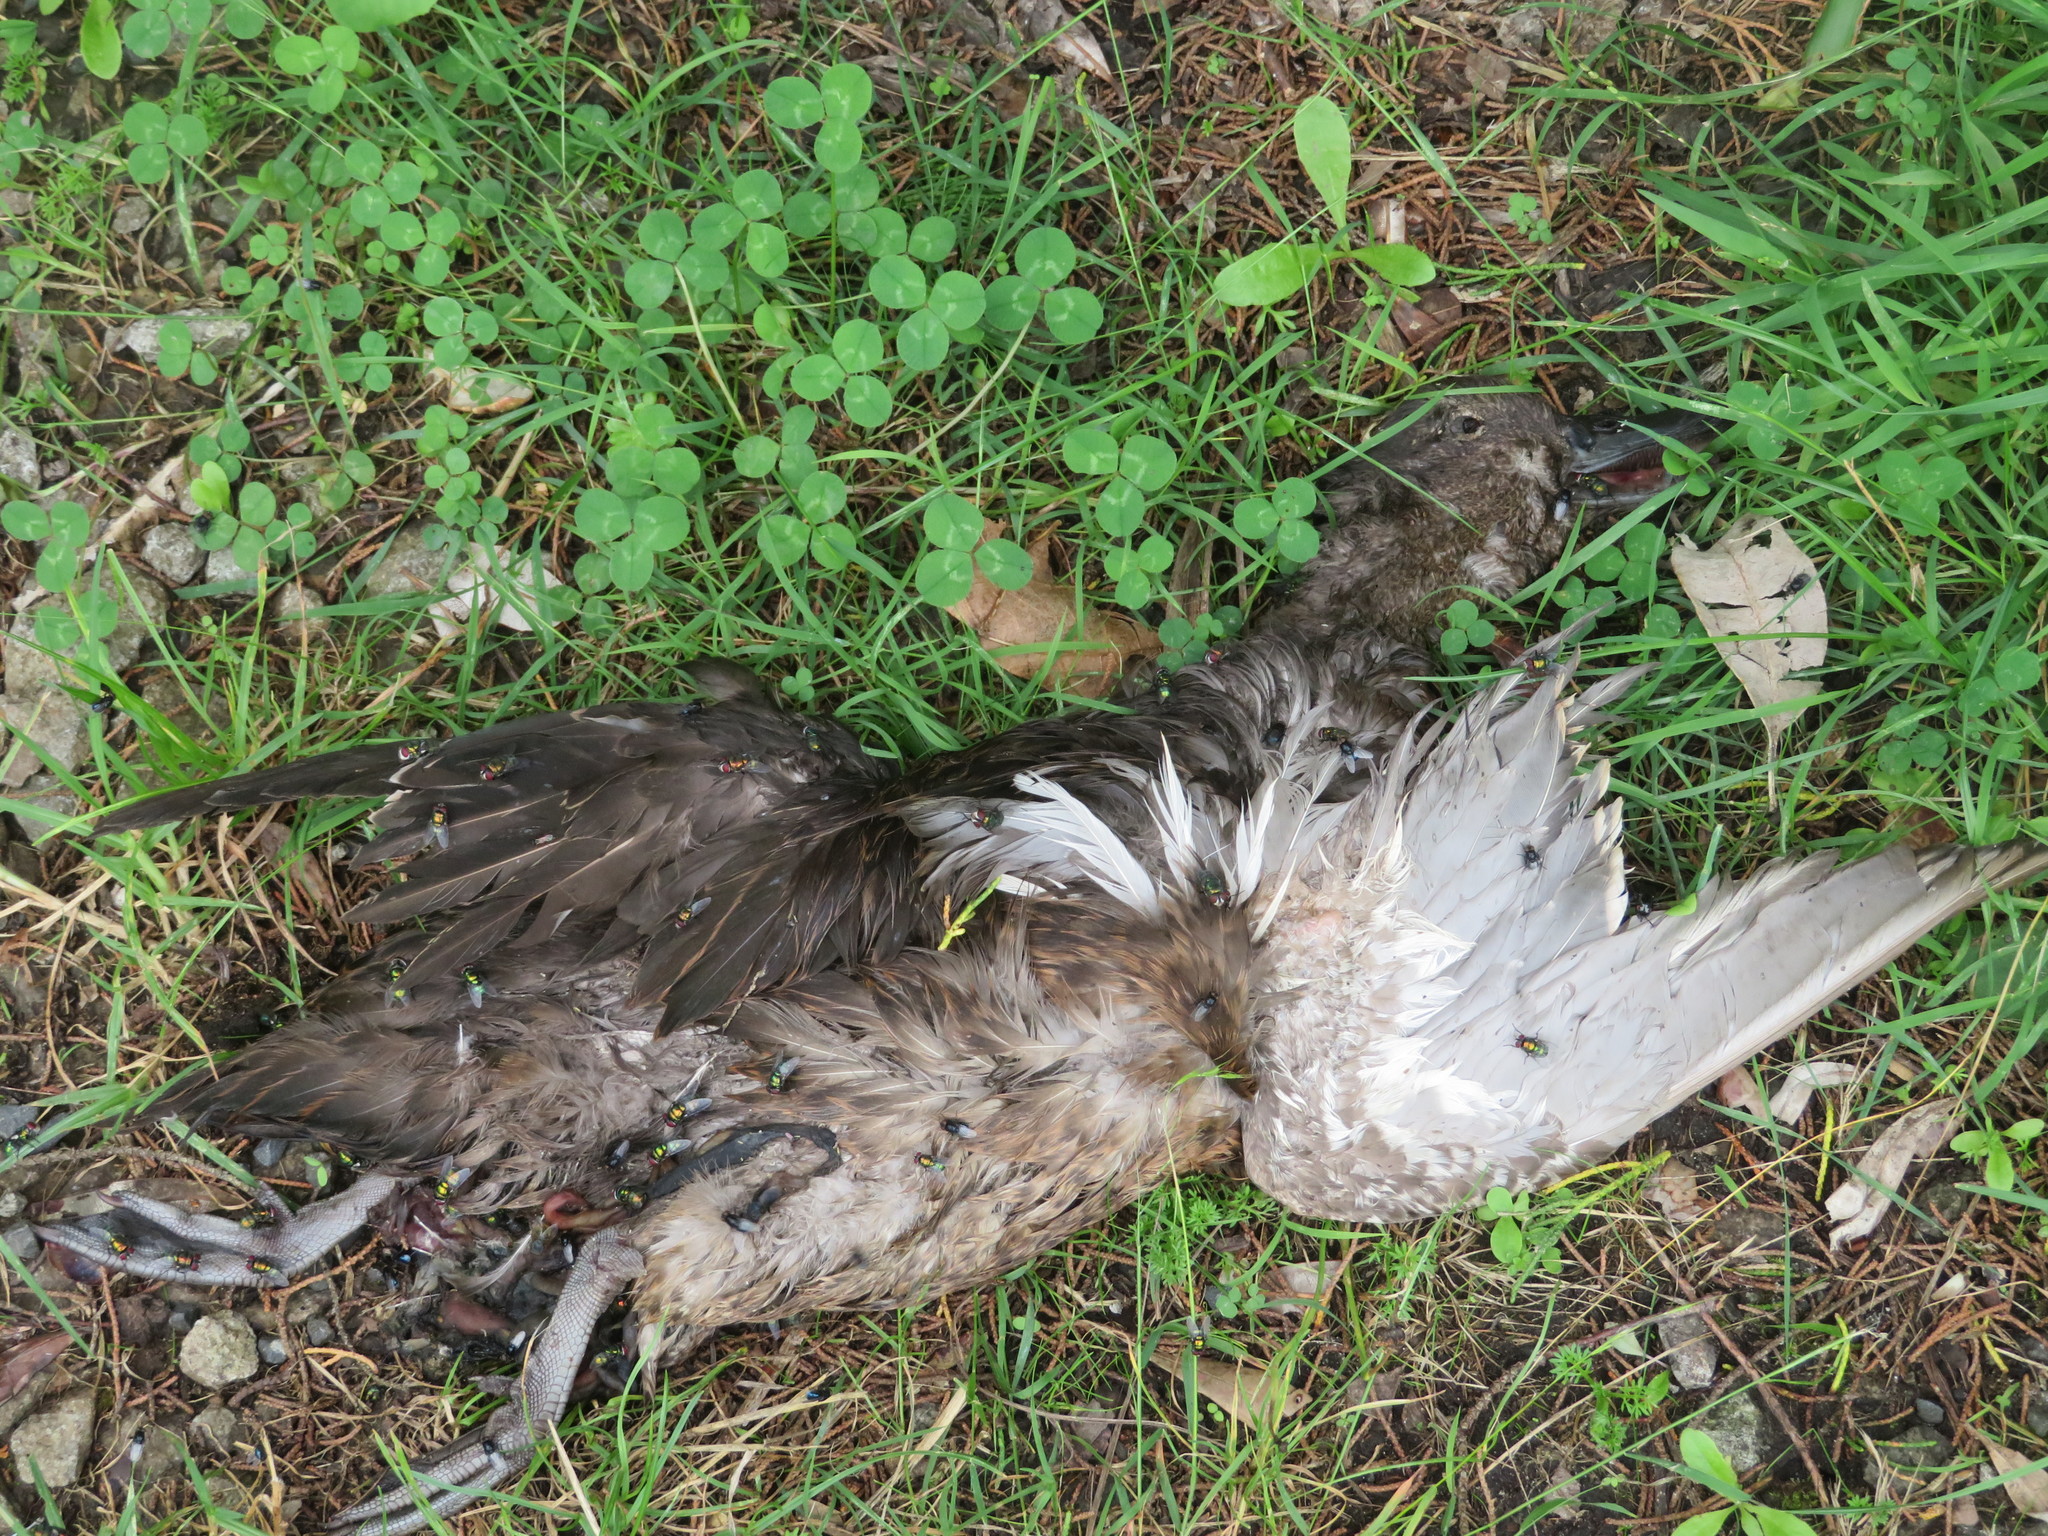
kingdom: Animalia
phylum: Chordata
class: Aves
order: Anseriformes
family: Anatidae
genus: Anas
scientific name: Anas chlorotis
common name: Brown teal
